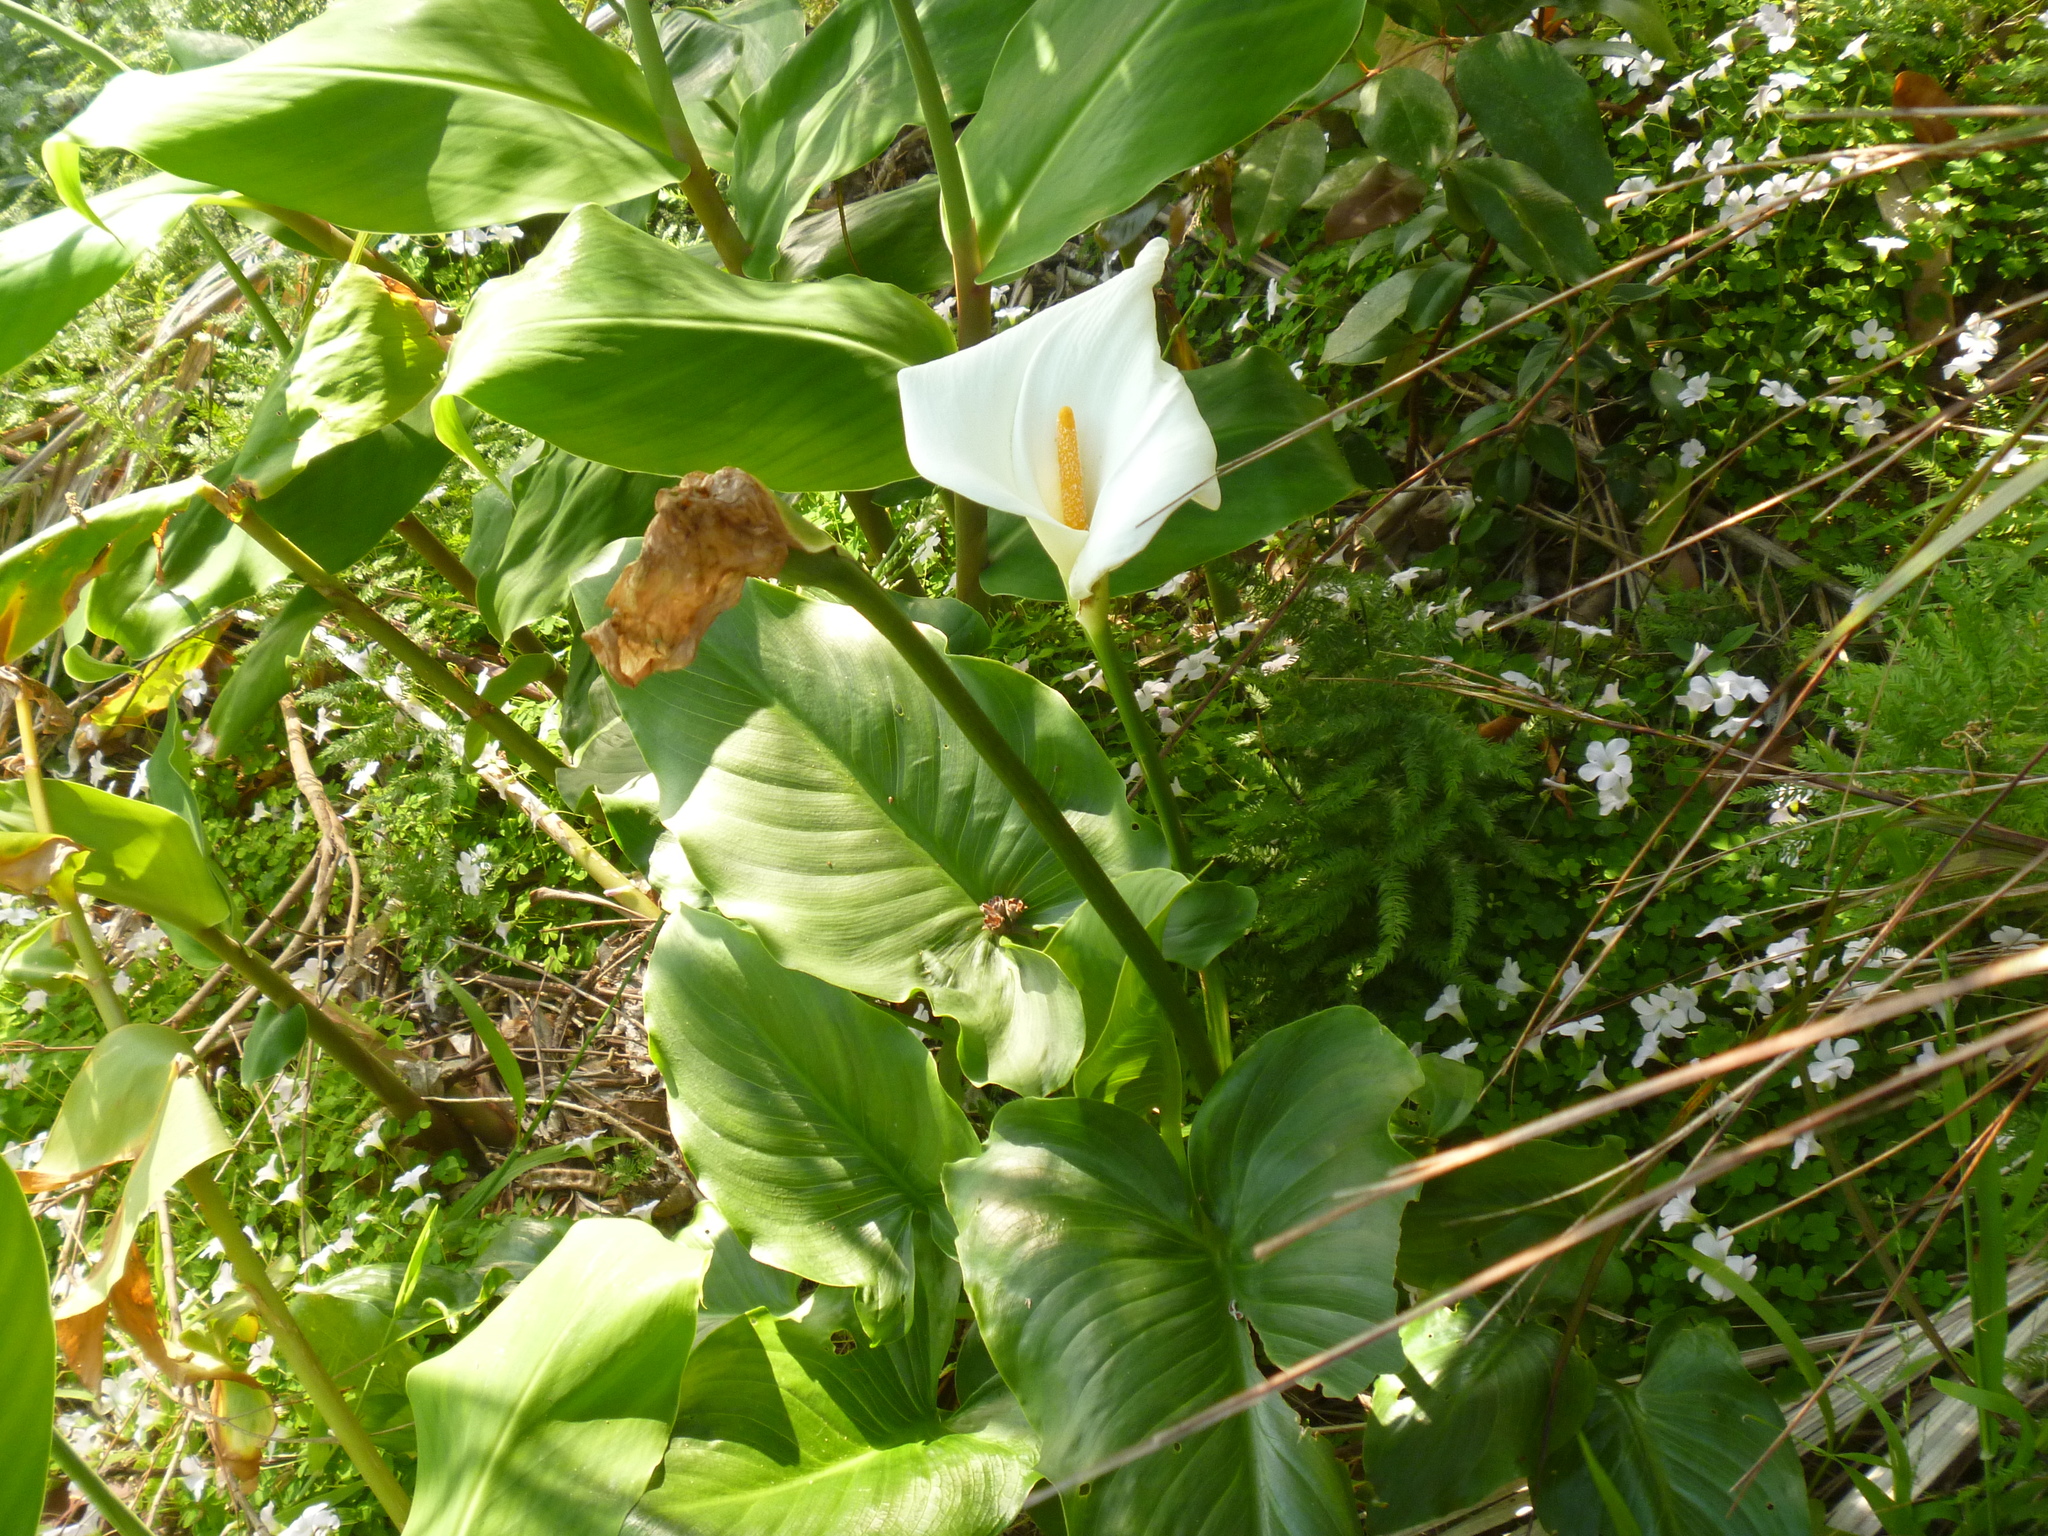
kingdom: Plantae
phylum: Tracheophyta
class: Liliopsida
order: Alismatales
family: Araceae
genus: Zantedeschia
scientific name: Zantedeschia aethiopica
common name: Altar-lily
